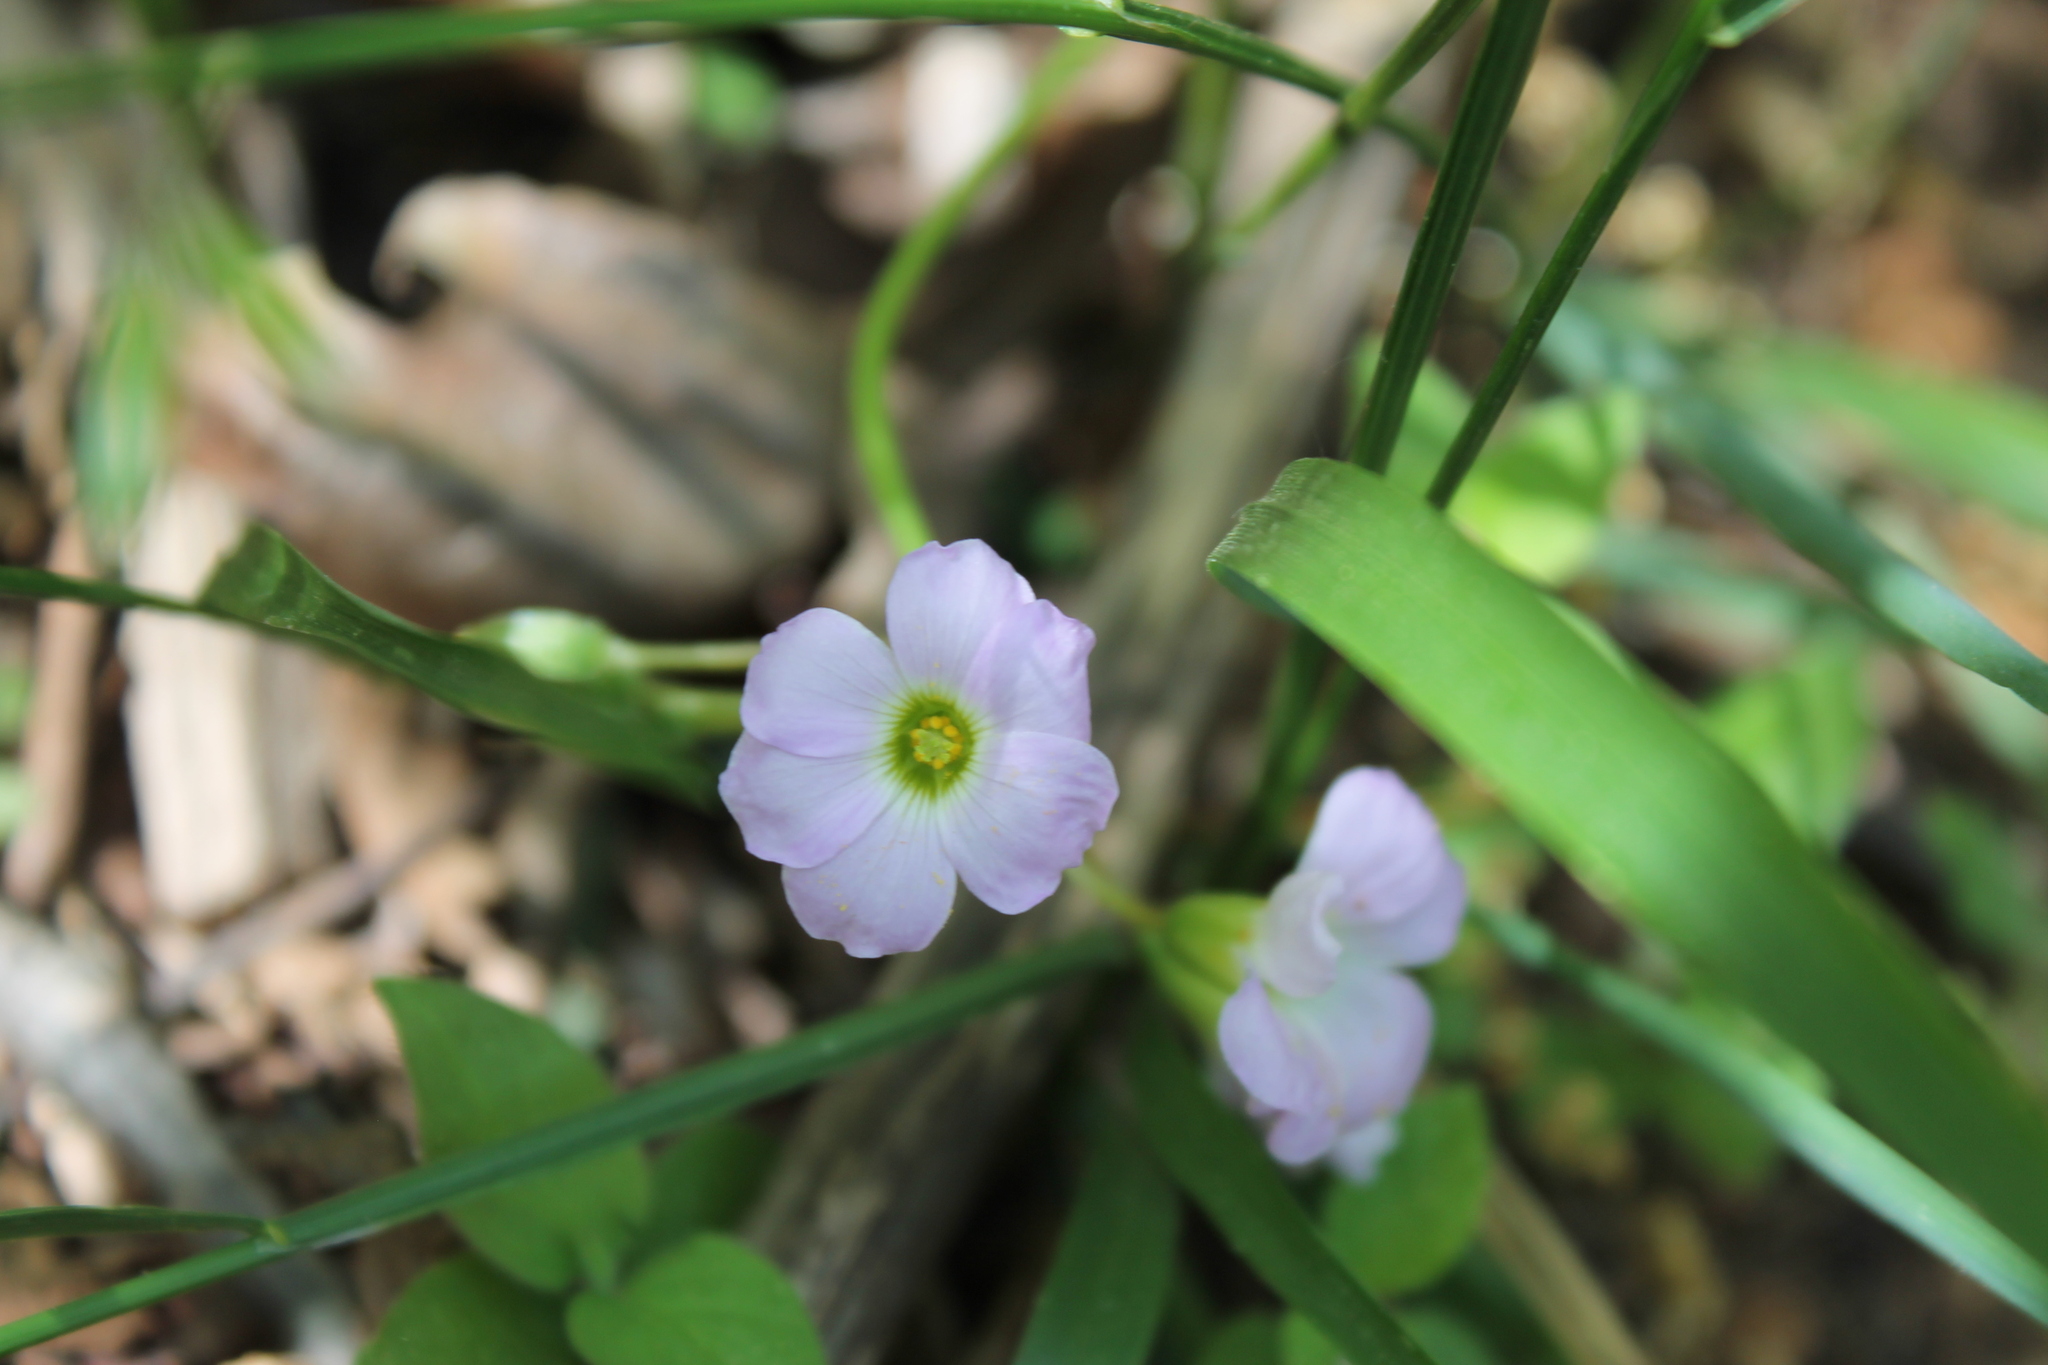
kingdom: Plantae
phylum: Tracheophyta
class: Magnoliopsida
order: Oxalidales
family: Oxalidaceae
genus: Oxalis
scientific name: Oxalis violacea
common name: Violet wood-sorrel
